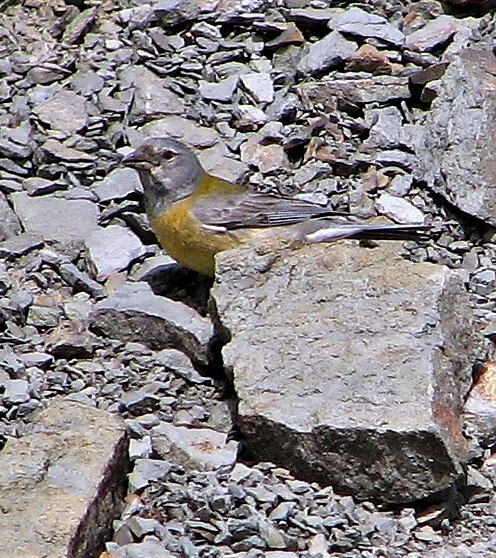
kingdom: Animalia
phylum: Chordata
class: Aves
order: Passeriformes
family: Thraupidae
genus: Phrygilus
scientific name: Phrygilus gayi
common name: Grey-hooded sierra finch
